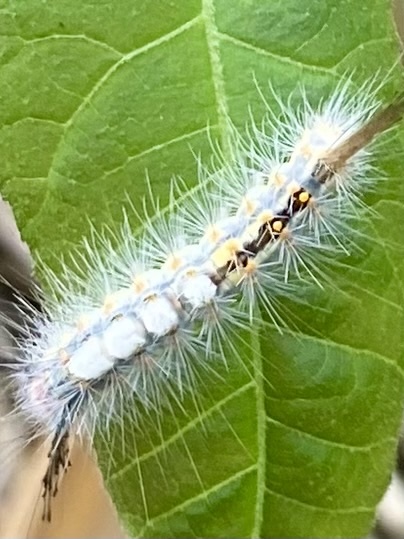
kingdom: Animalia
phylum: Arthropoda
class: Insecta
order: Lepidoptera
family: Erebidae
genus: Orgyia
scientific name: Orgyia detrita
